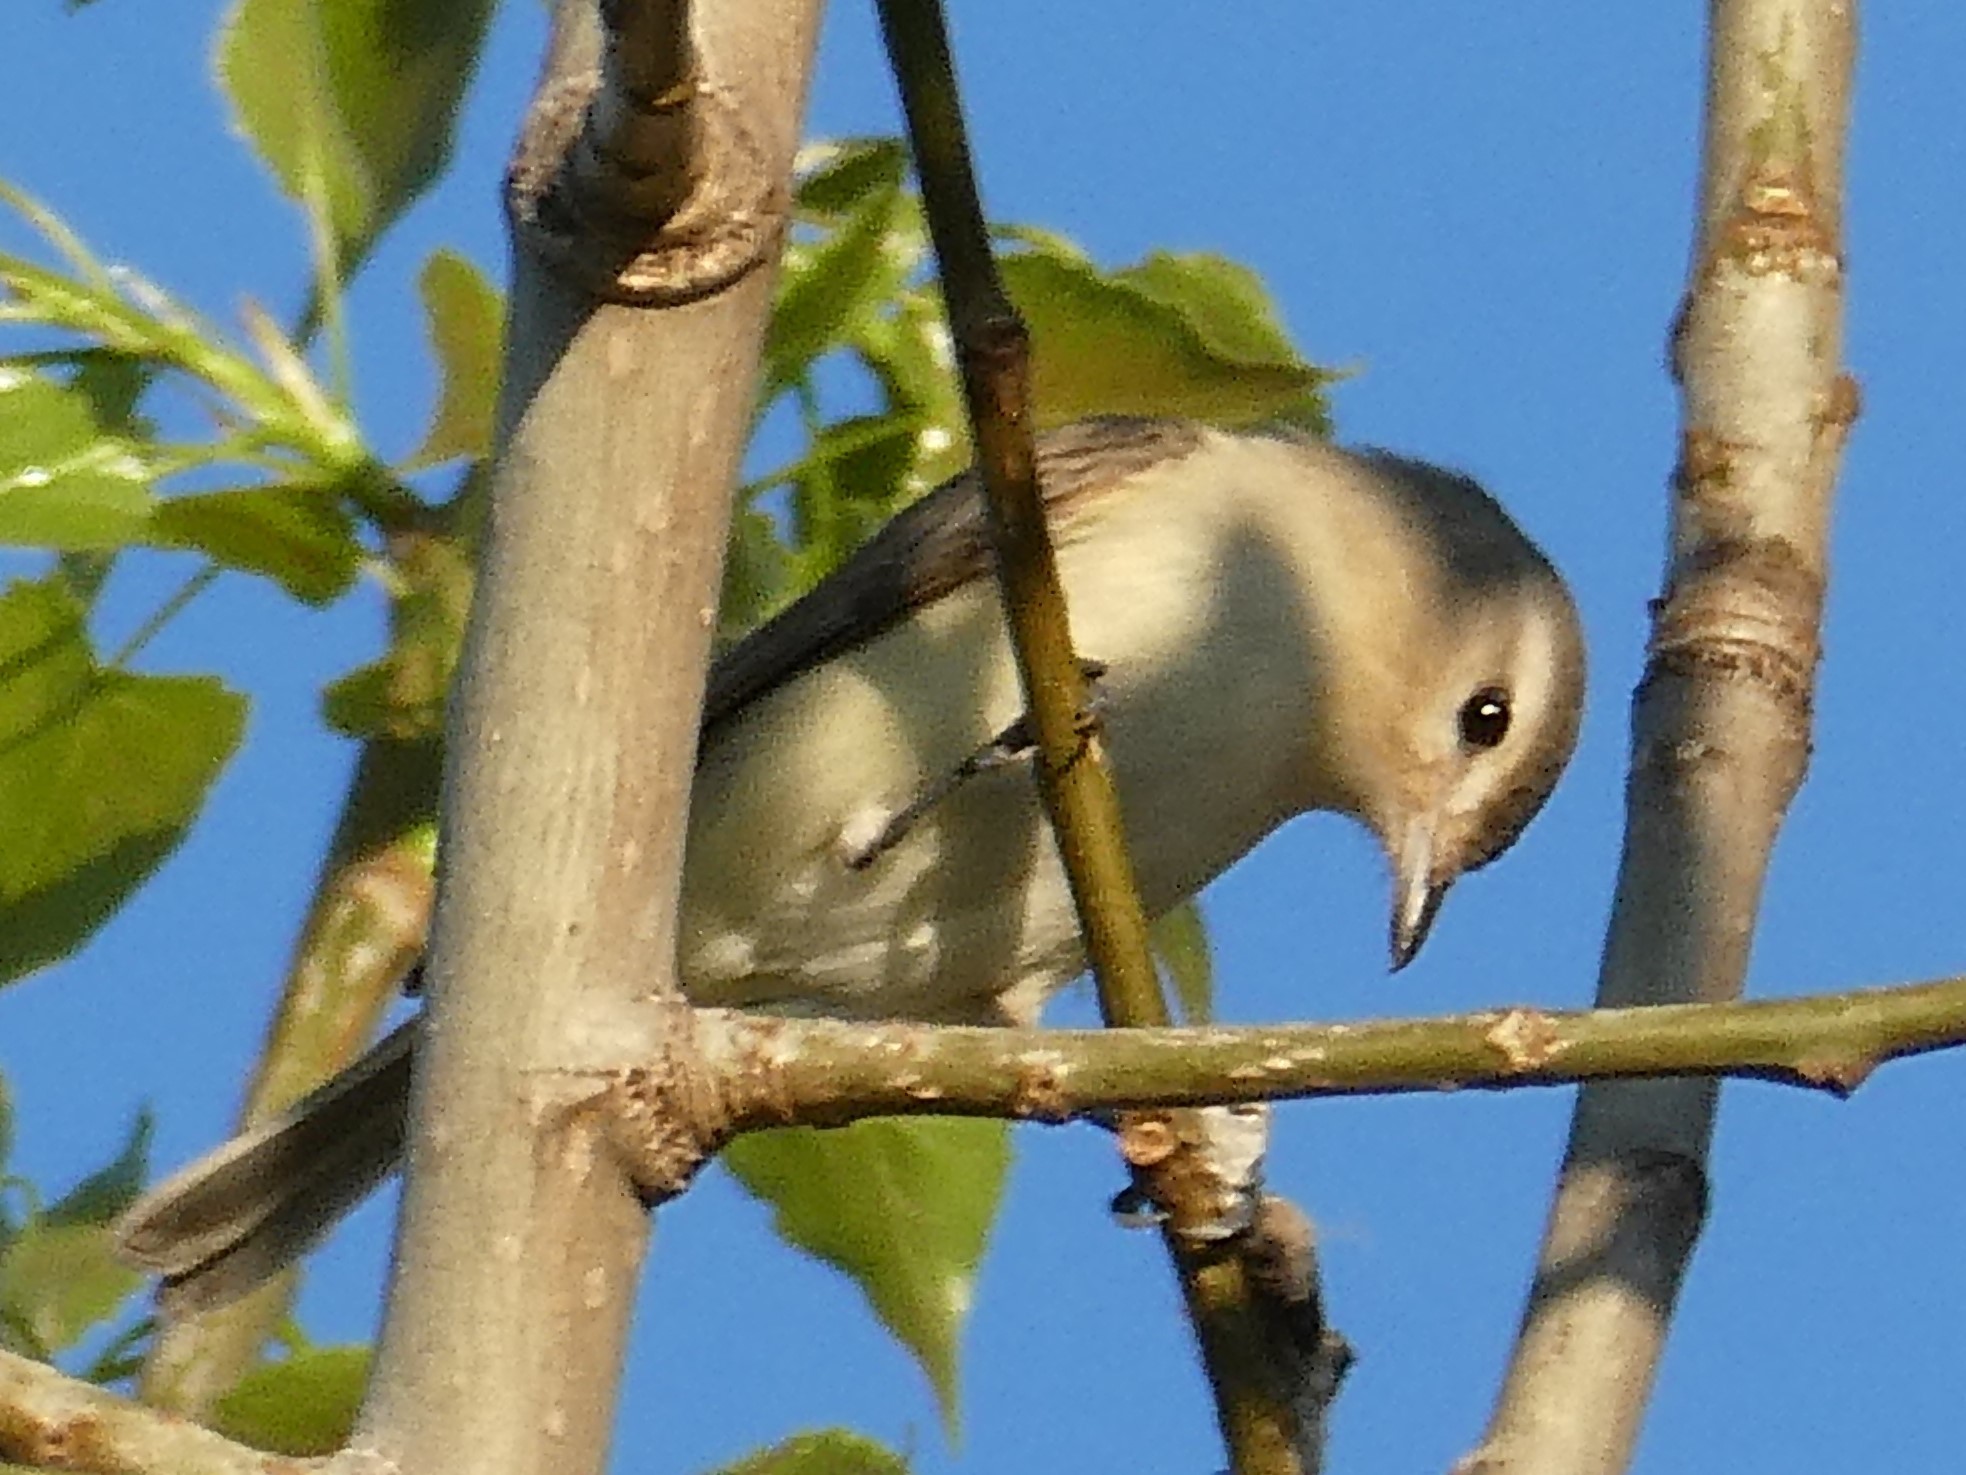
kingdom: Animalia
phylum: Chordata
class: Aves
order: Passeriformes
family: Vireonidae
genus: Vireo
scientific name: Vireo gilvus
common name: Warbling vireo
